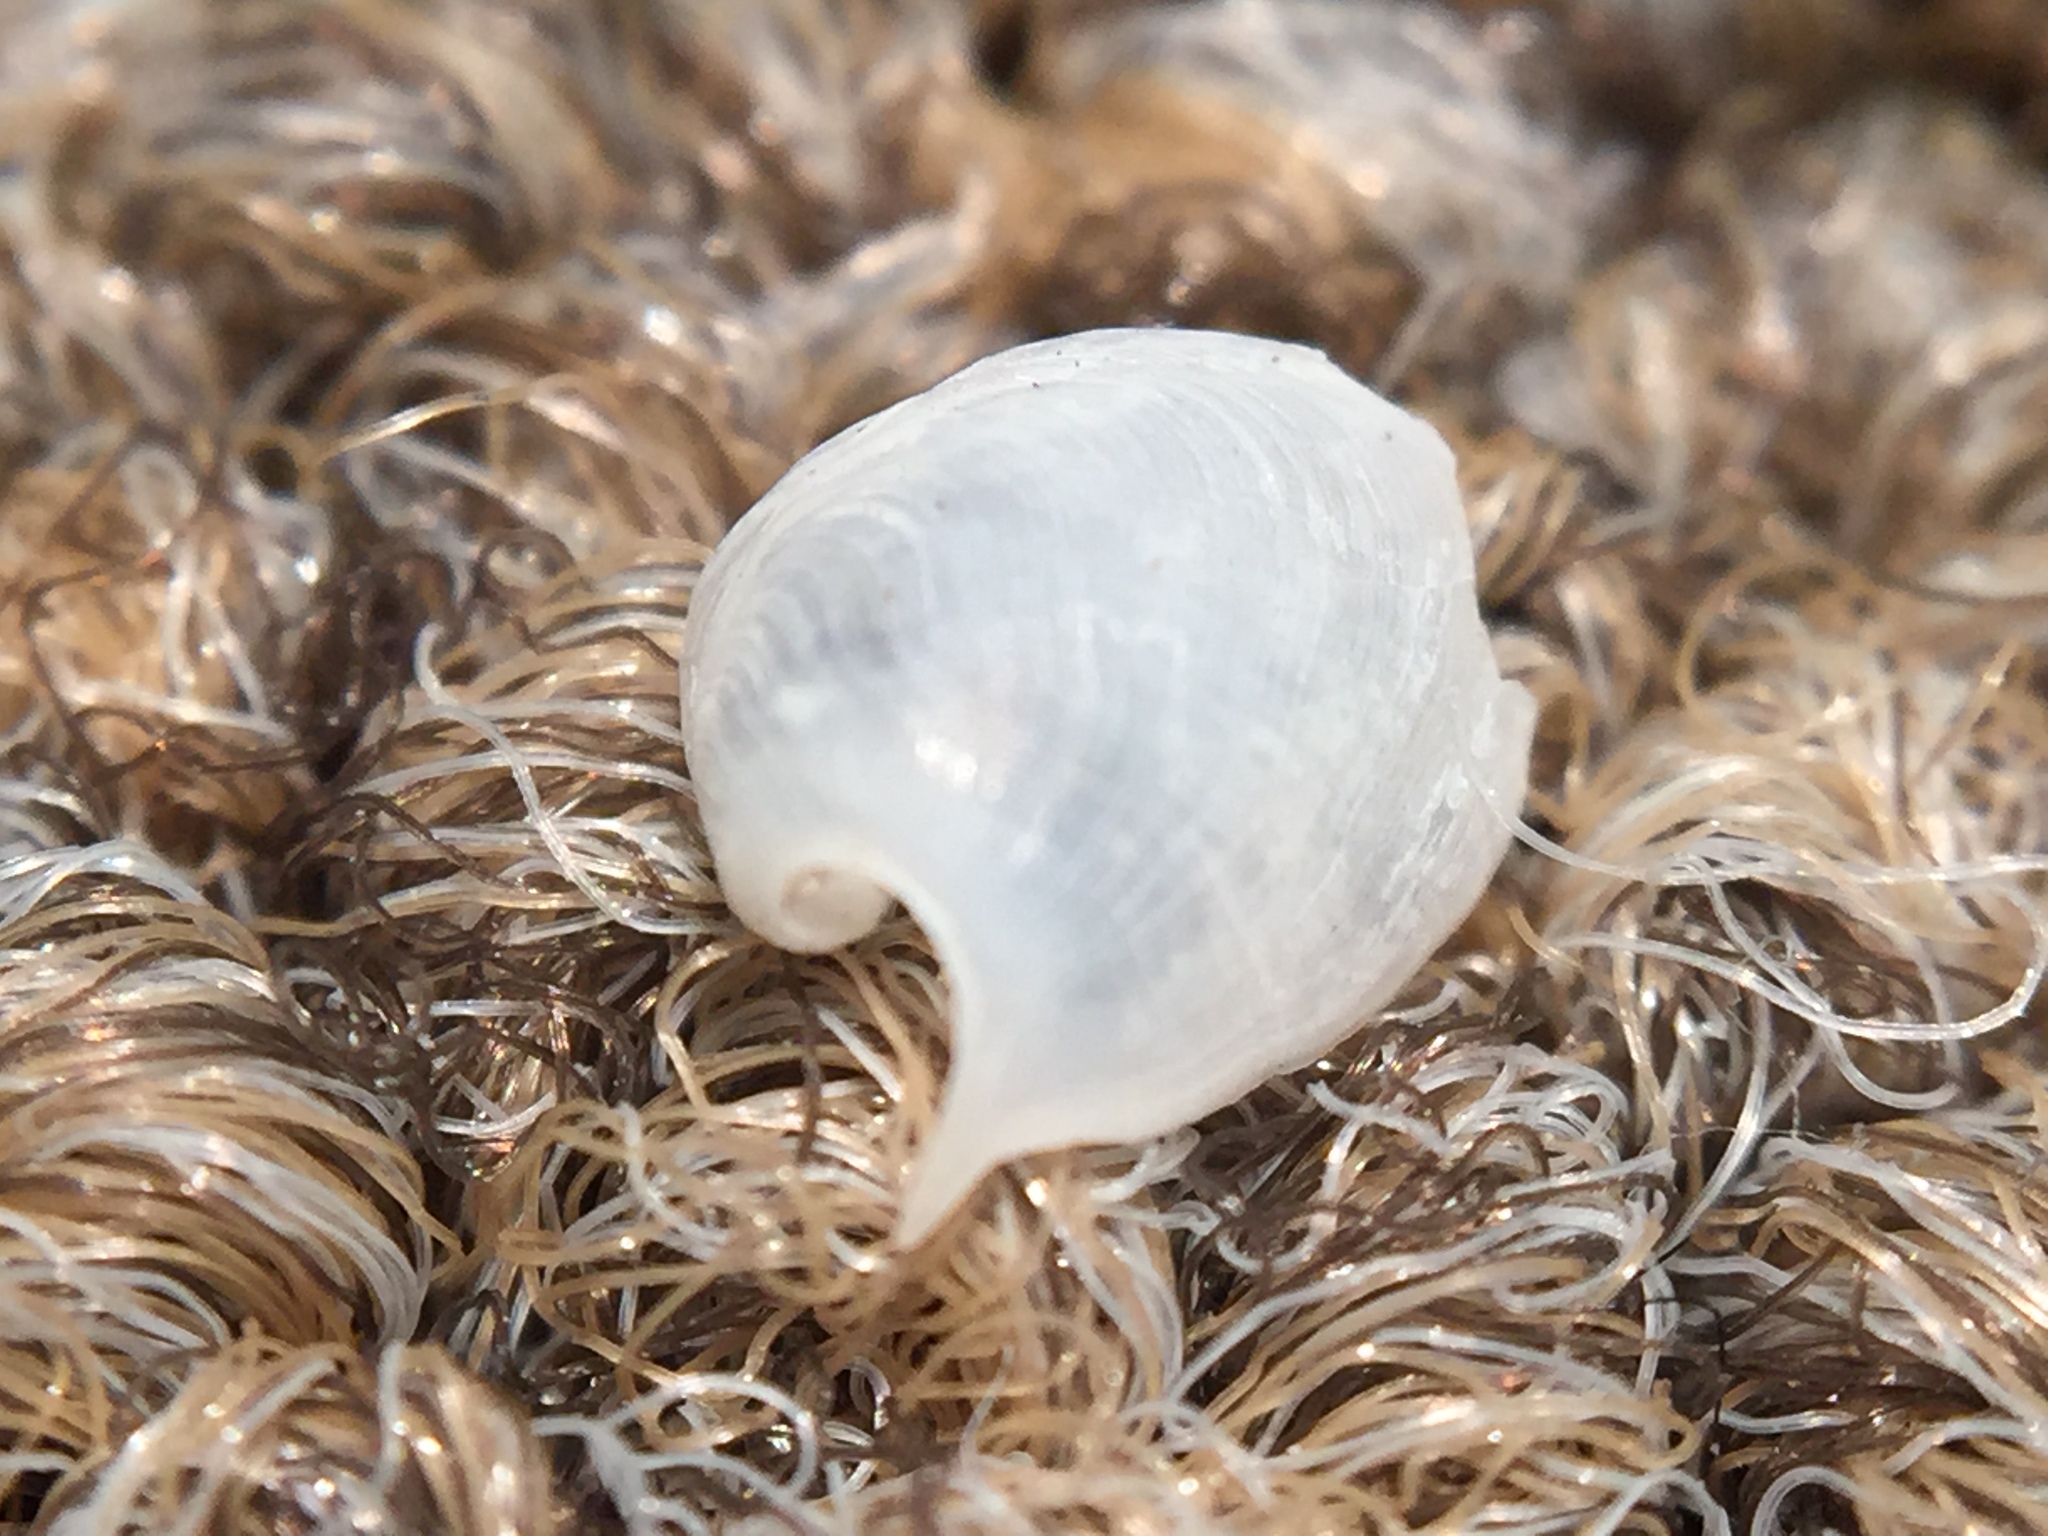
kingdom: Animalia
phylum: Mollusca
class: Gastropoda
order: Cephalaspidea
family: Aglajidae
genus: Melanochlamys
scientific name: Melanochlamys cylindrica
